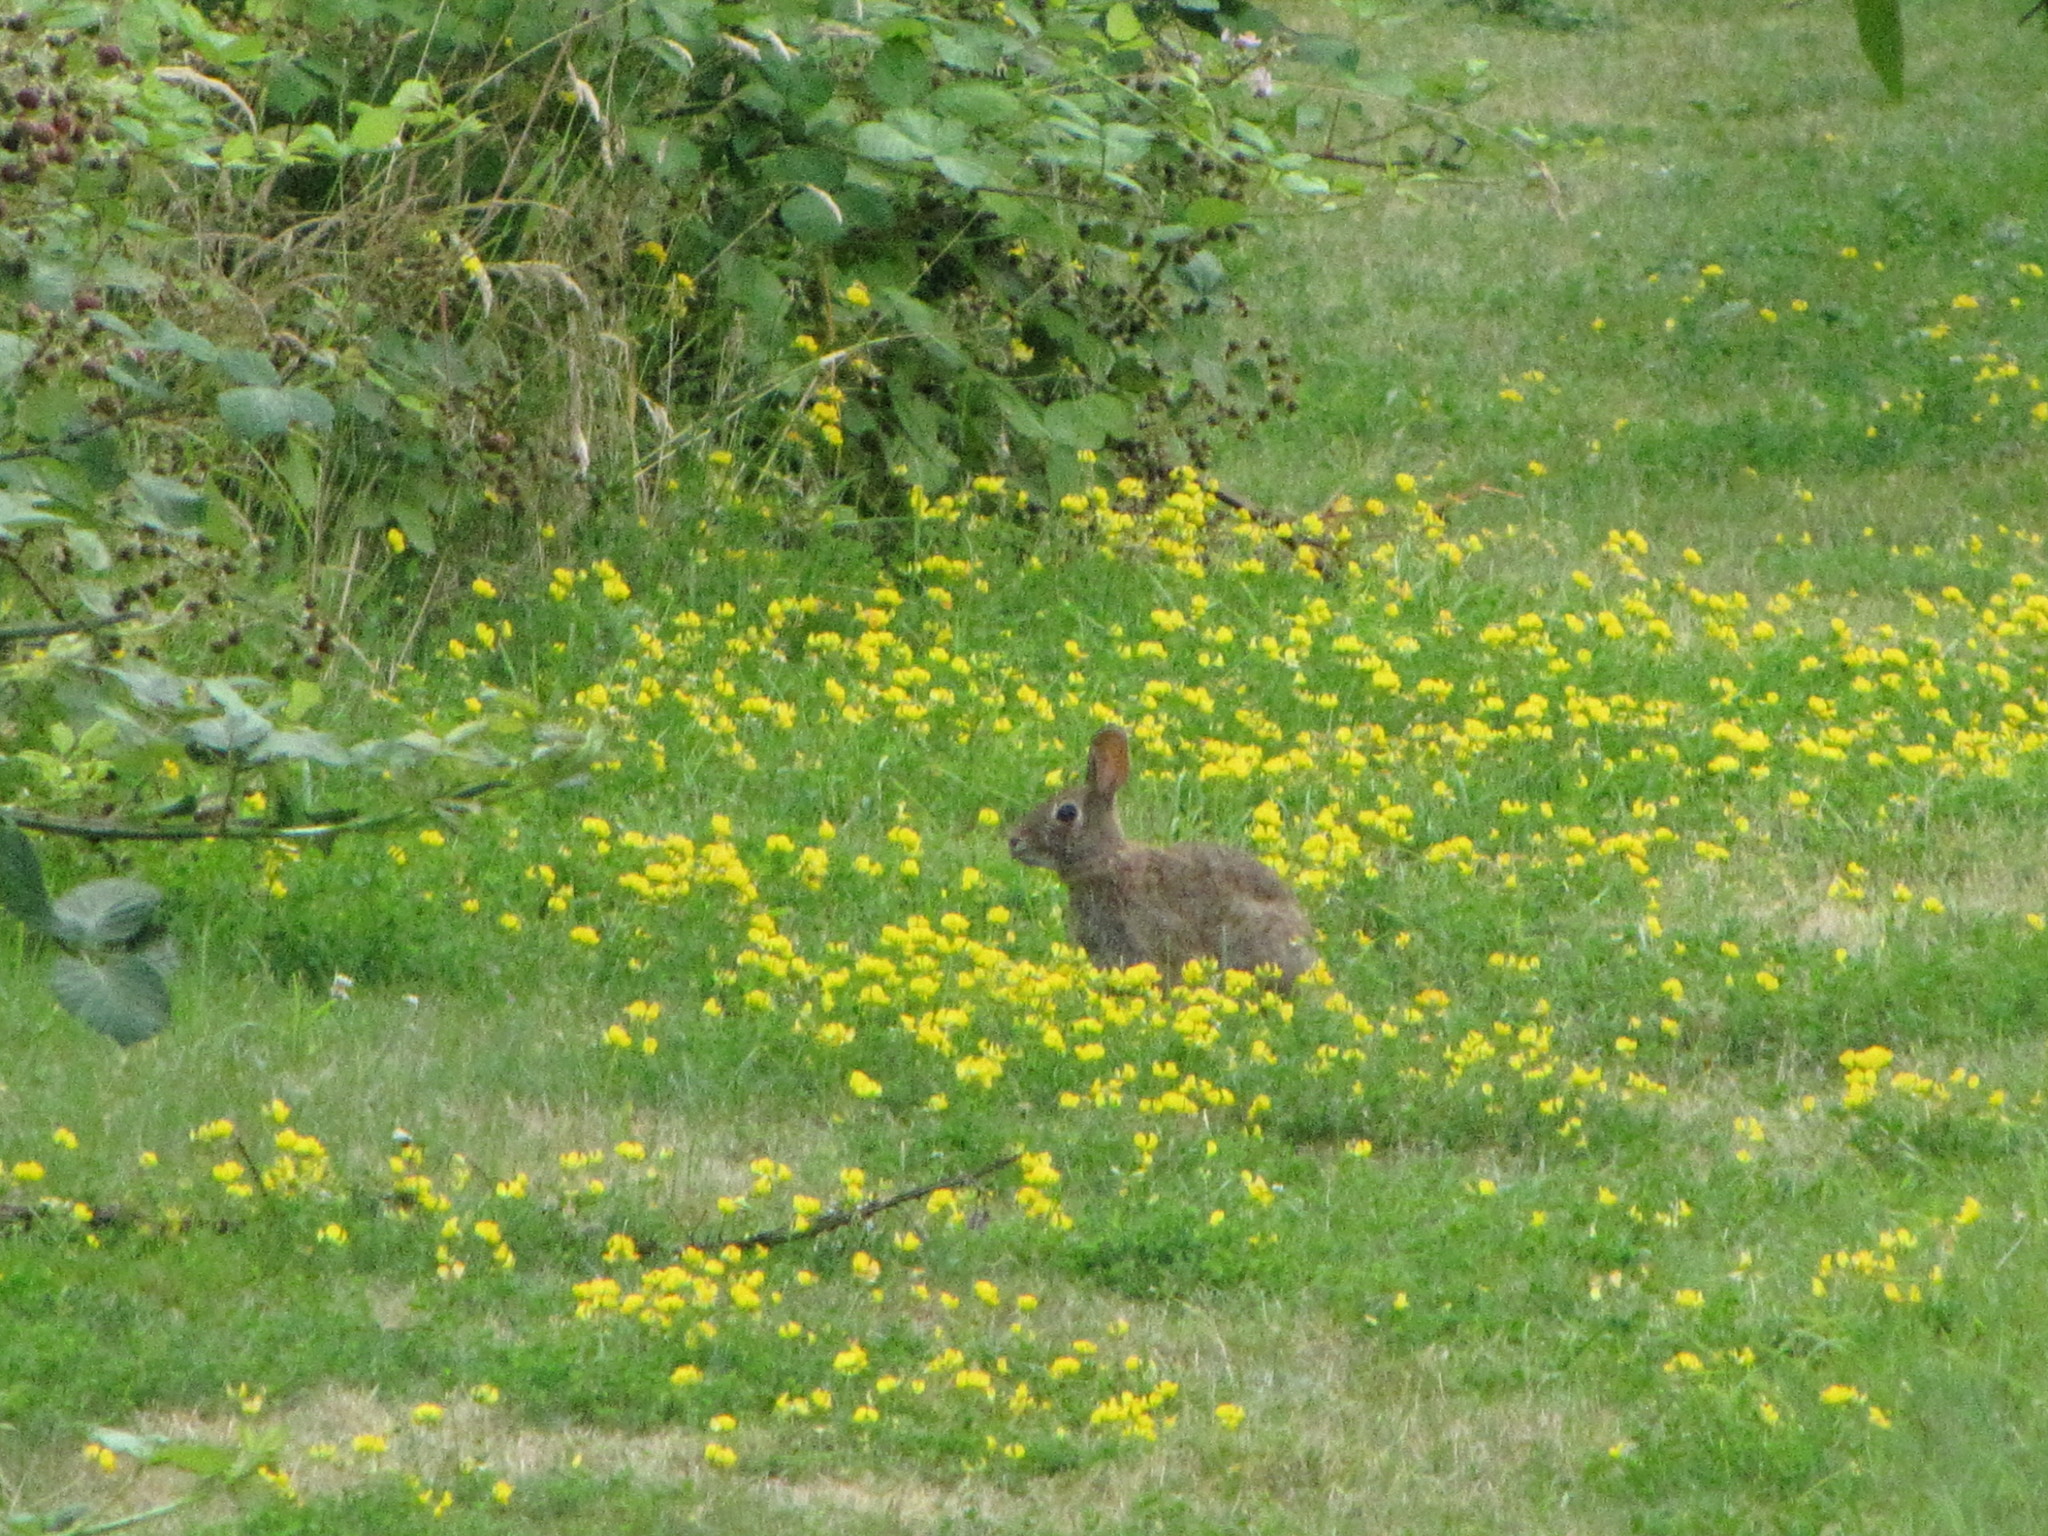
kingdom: Plantae
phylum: Tracheophyta
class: Magnoliopsida
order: Asterales
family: Asteraceae
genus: Hypochaeris
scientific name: Hypochaeris radicata
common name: Flatweed
